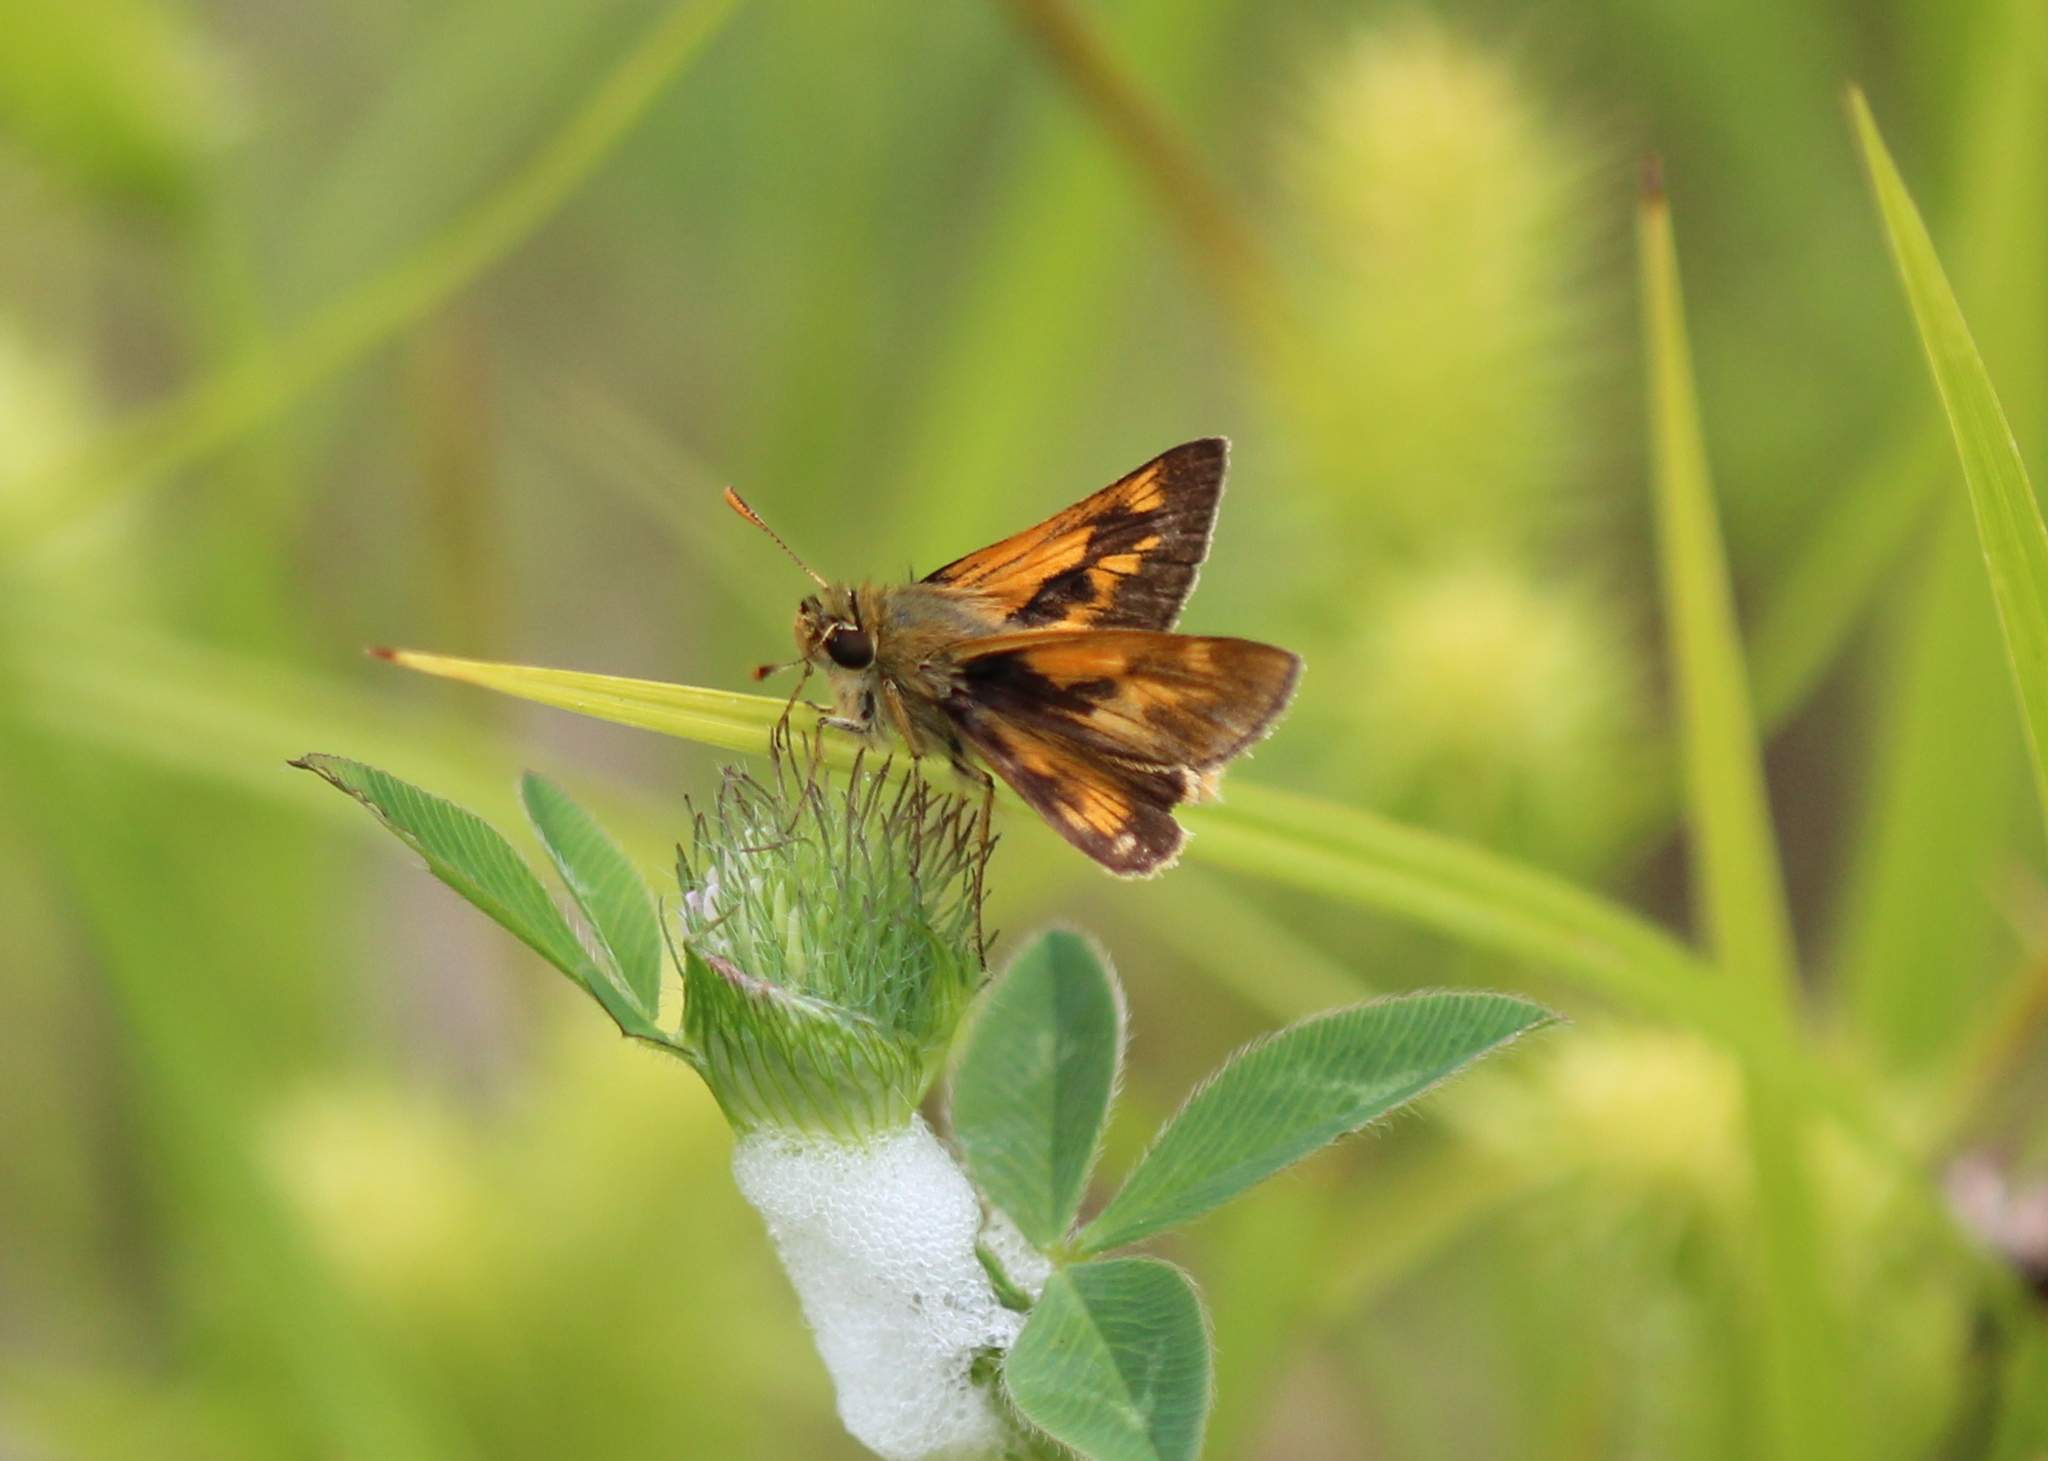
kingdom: Animalia
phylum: Arthropoda
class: Insecta
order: Lepidoptera
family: Hesperiidae
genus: Polites
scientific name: Polites mystic
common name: Long dash
